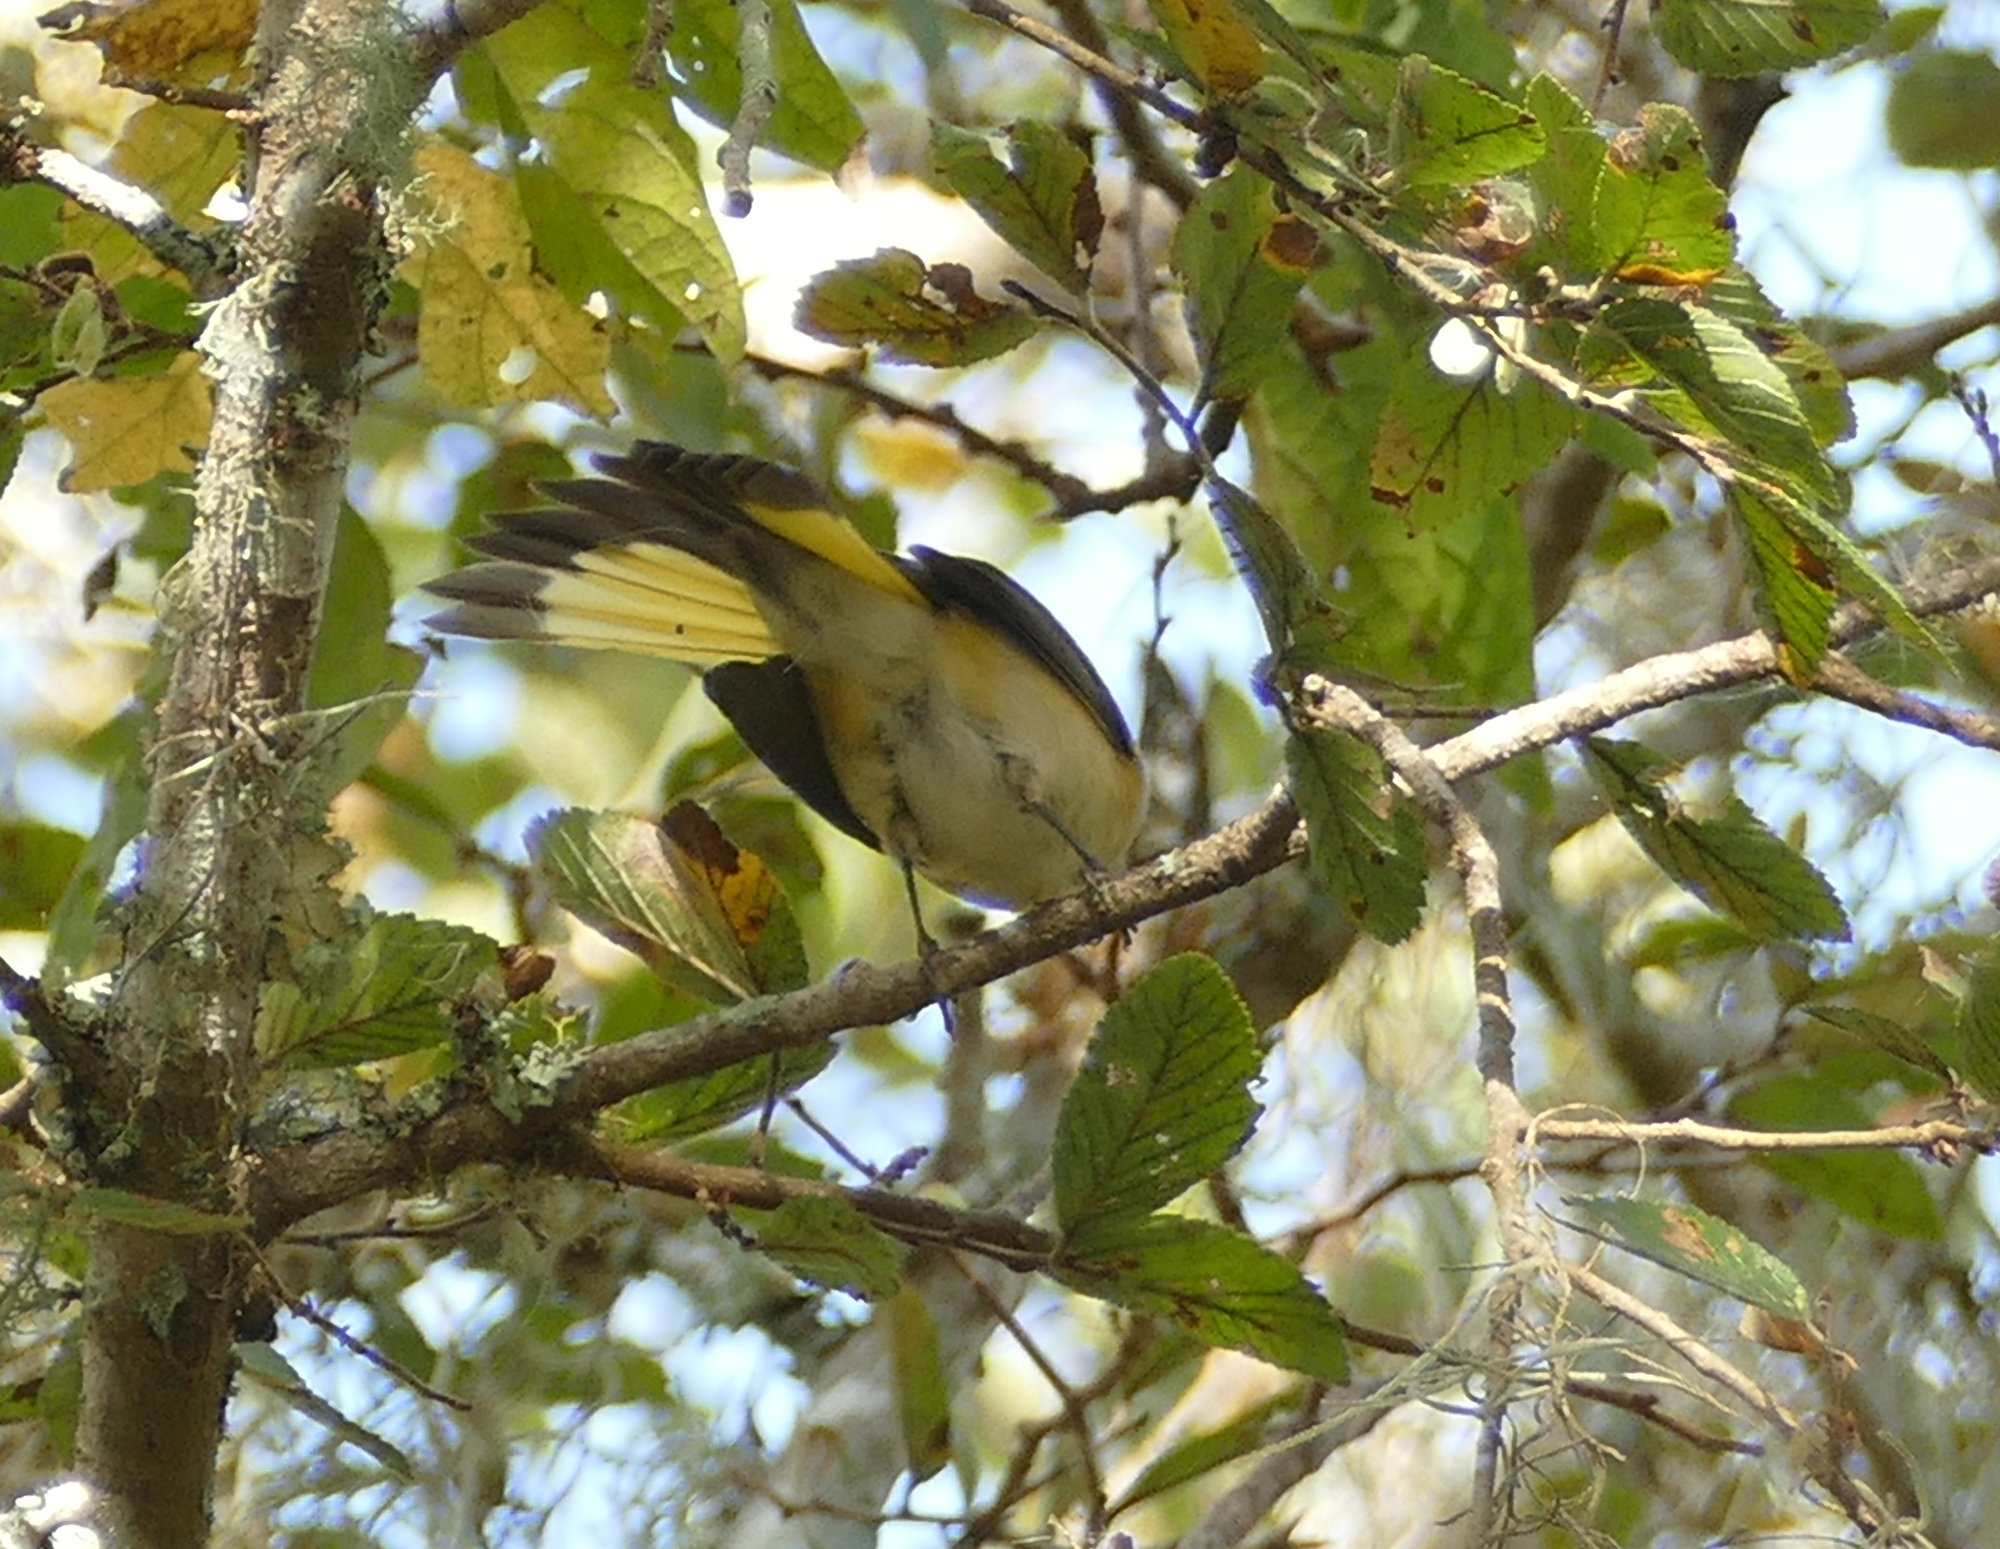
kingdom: Animalia
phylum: Chordata
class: Aves
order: Passeriformes
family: Parulidae
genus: Setophaga
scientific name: Setophaga ruticilla
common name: American redstart
